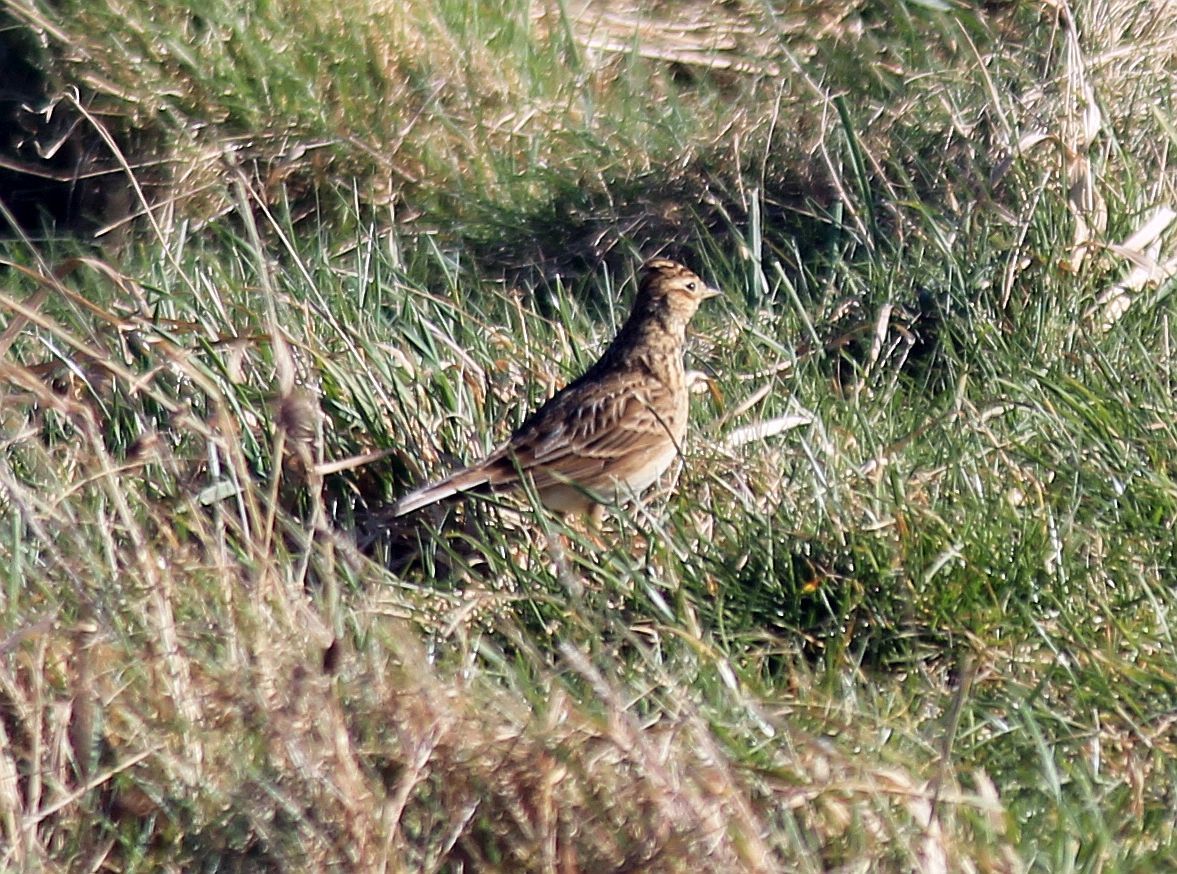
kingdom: Animalia
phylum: Chordata
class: Aves
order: Passeriformes
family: Alaudidae
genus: Alauda
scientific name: Alauda arvensis
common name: Eurasian skylark
